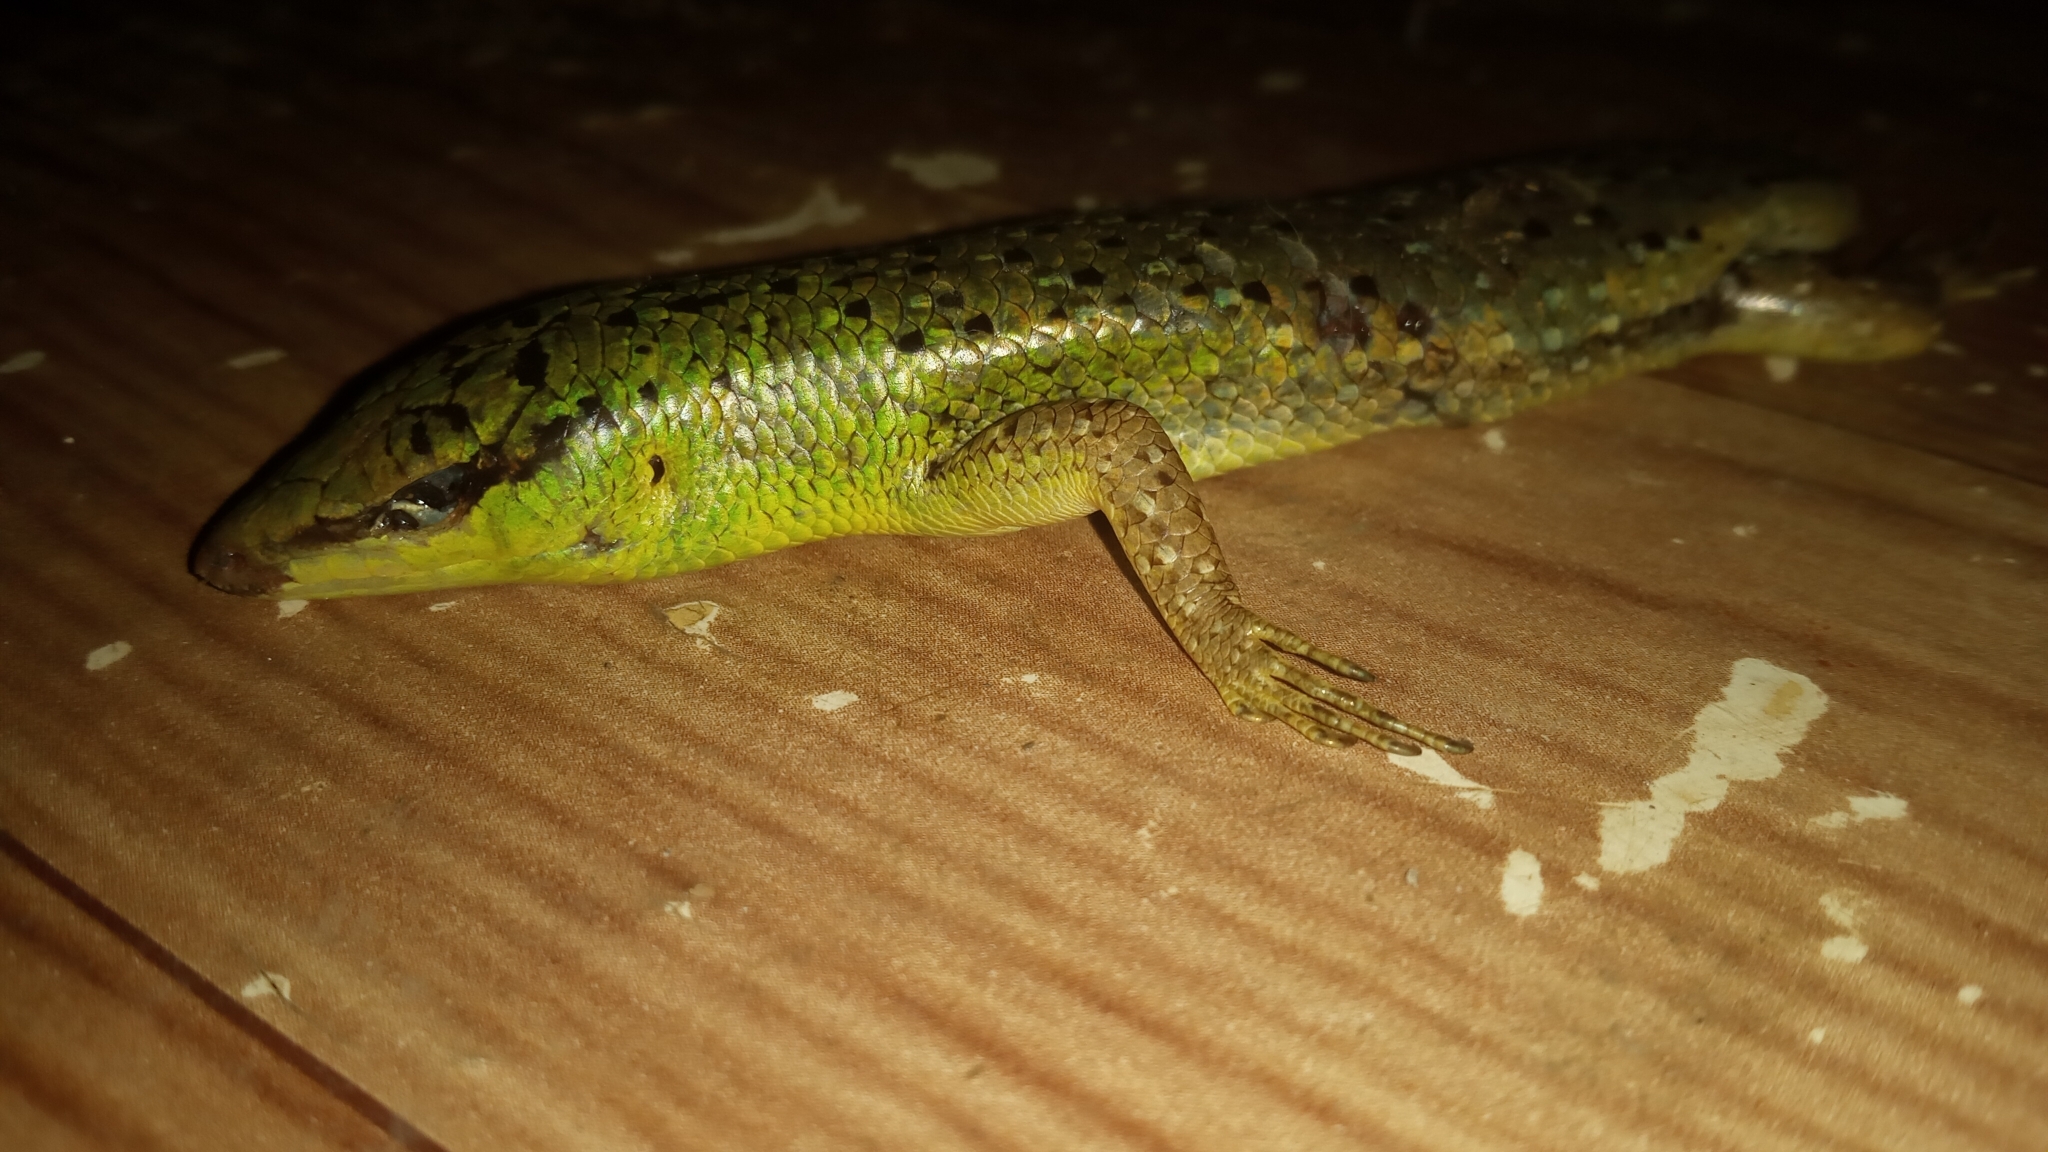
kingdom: Animalia
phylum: Chordata
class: Squamata
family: Scincidae
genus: Lamprolepis
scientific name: Lamprolepis smaragdina
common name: Emerald skink
